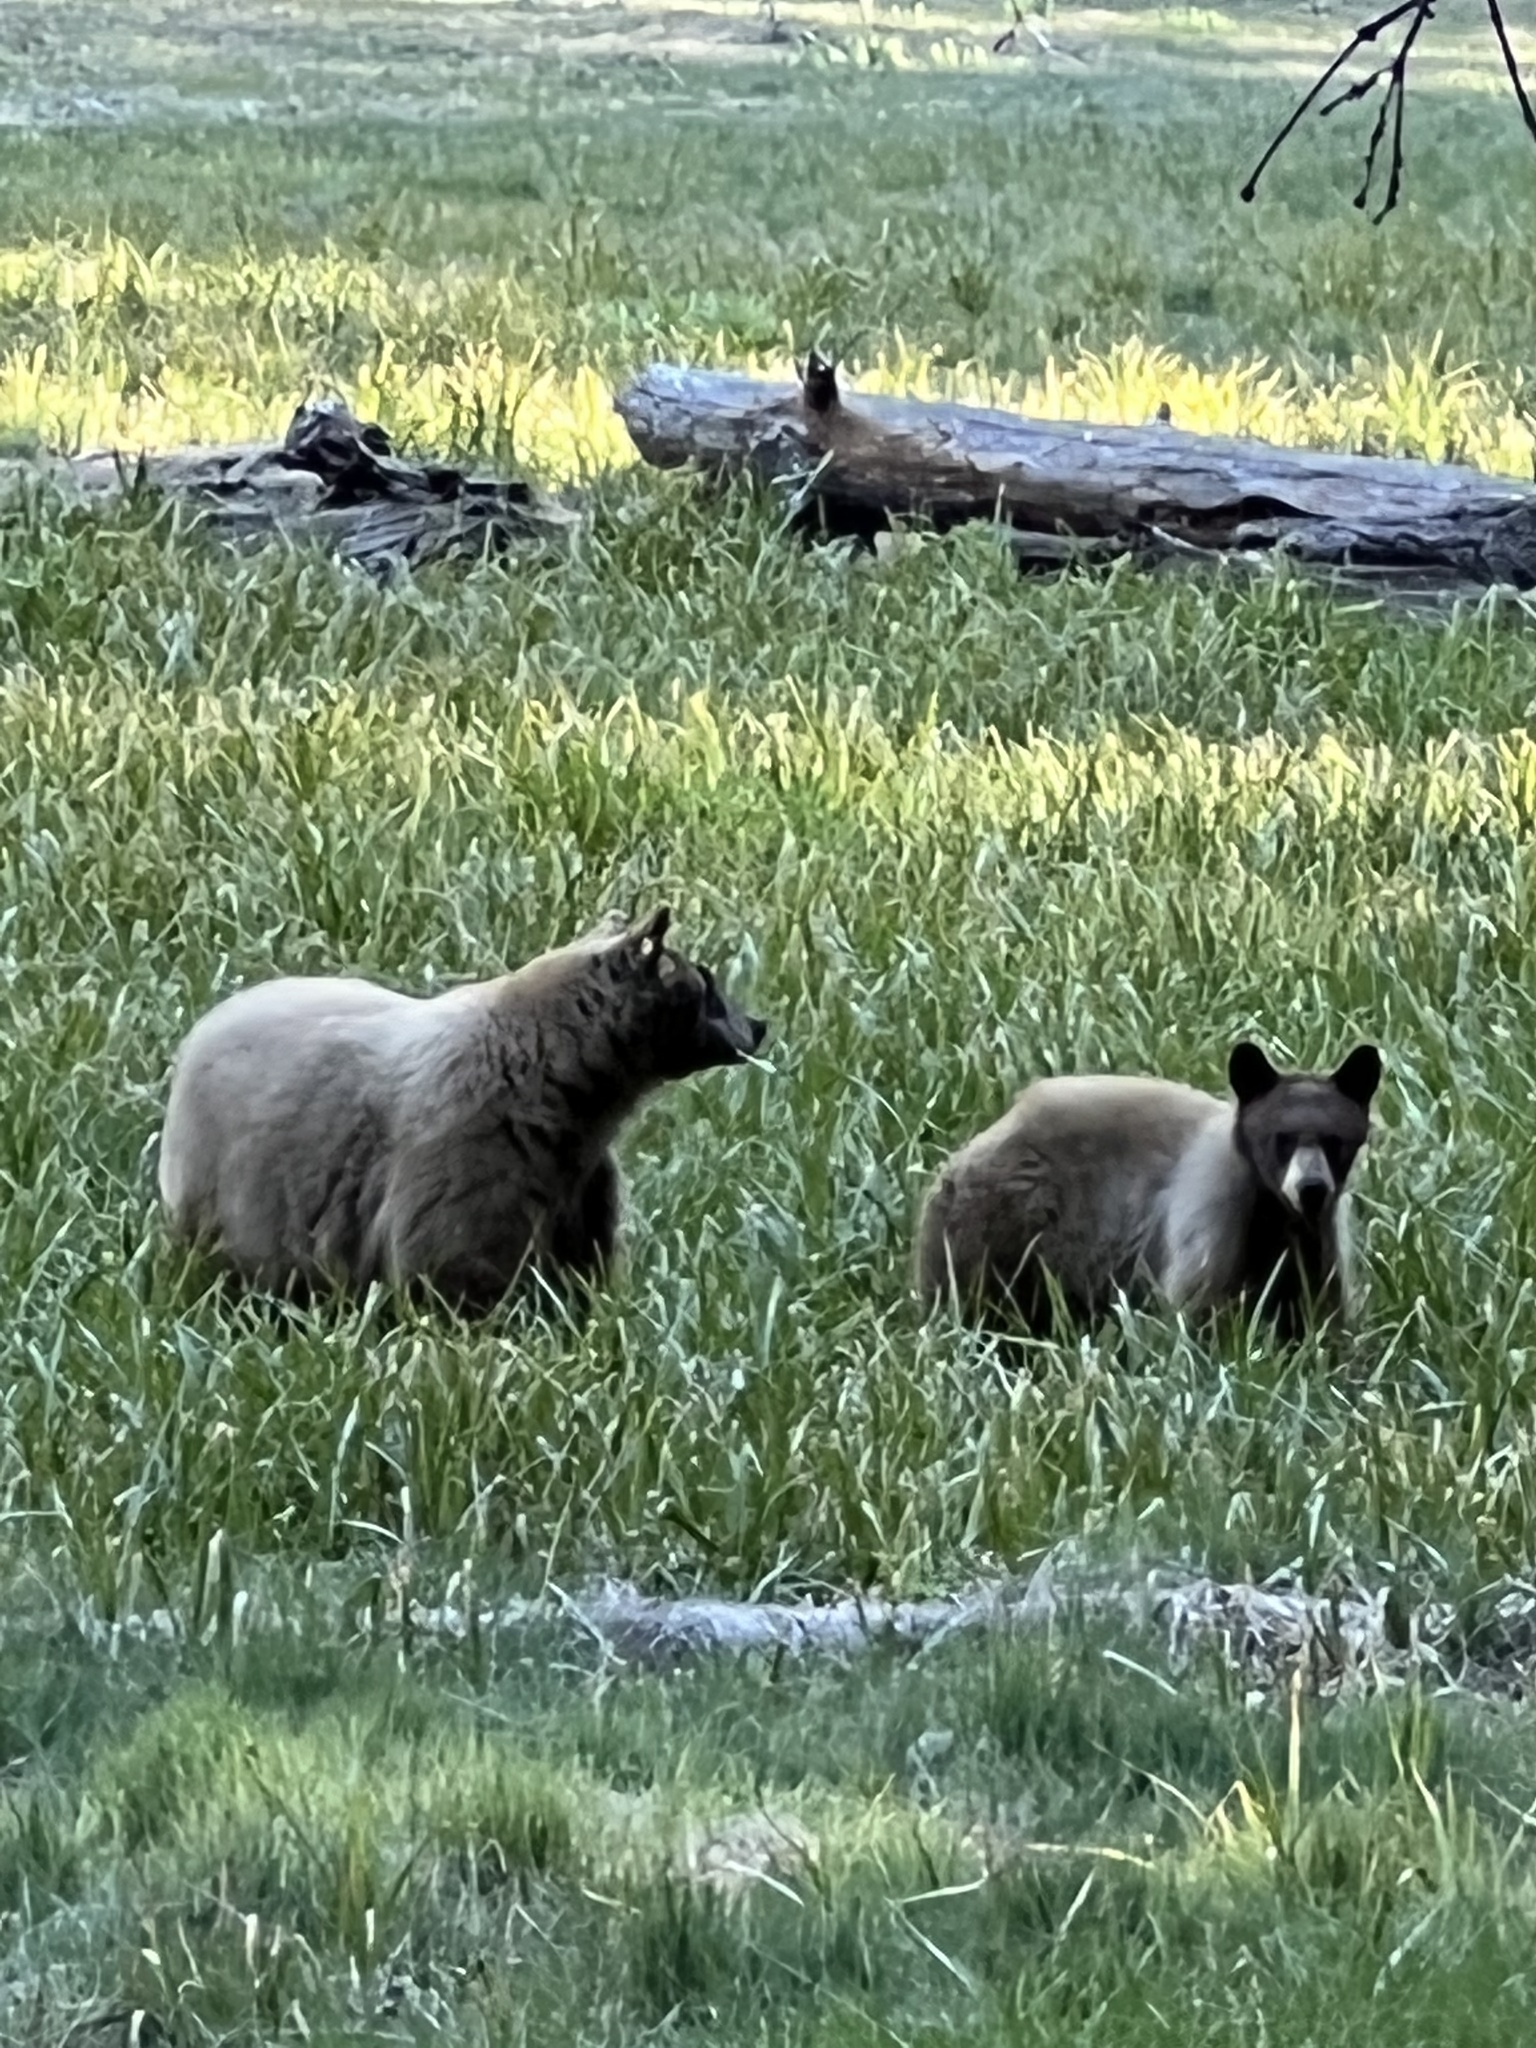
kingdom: Animalia
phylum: Chordata
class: Mammalia
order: Carnivora
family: Ursidae
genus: Ursus
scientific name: Ursus americanus
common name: American black bear
